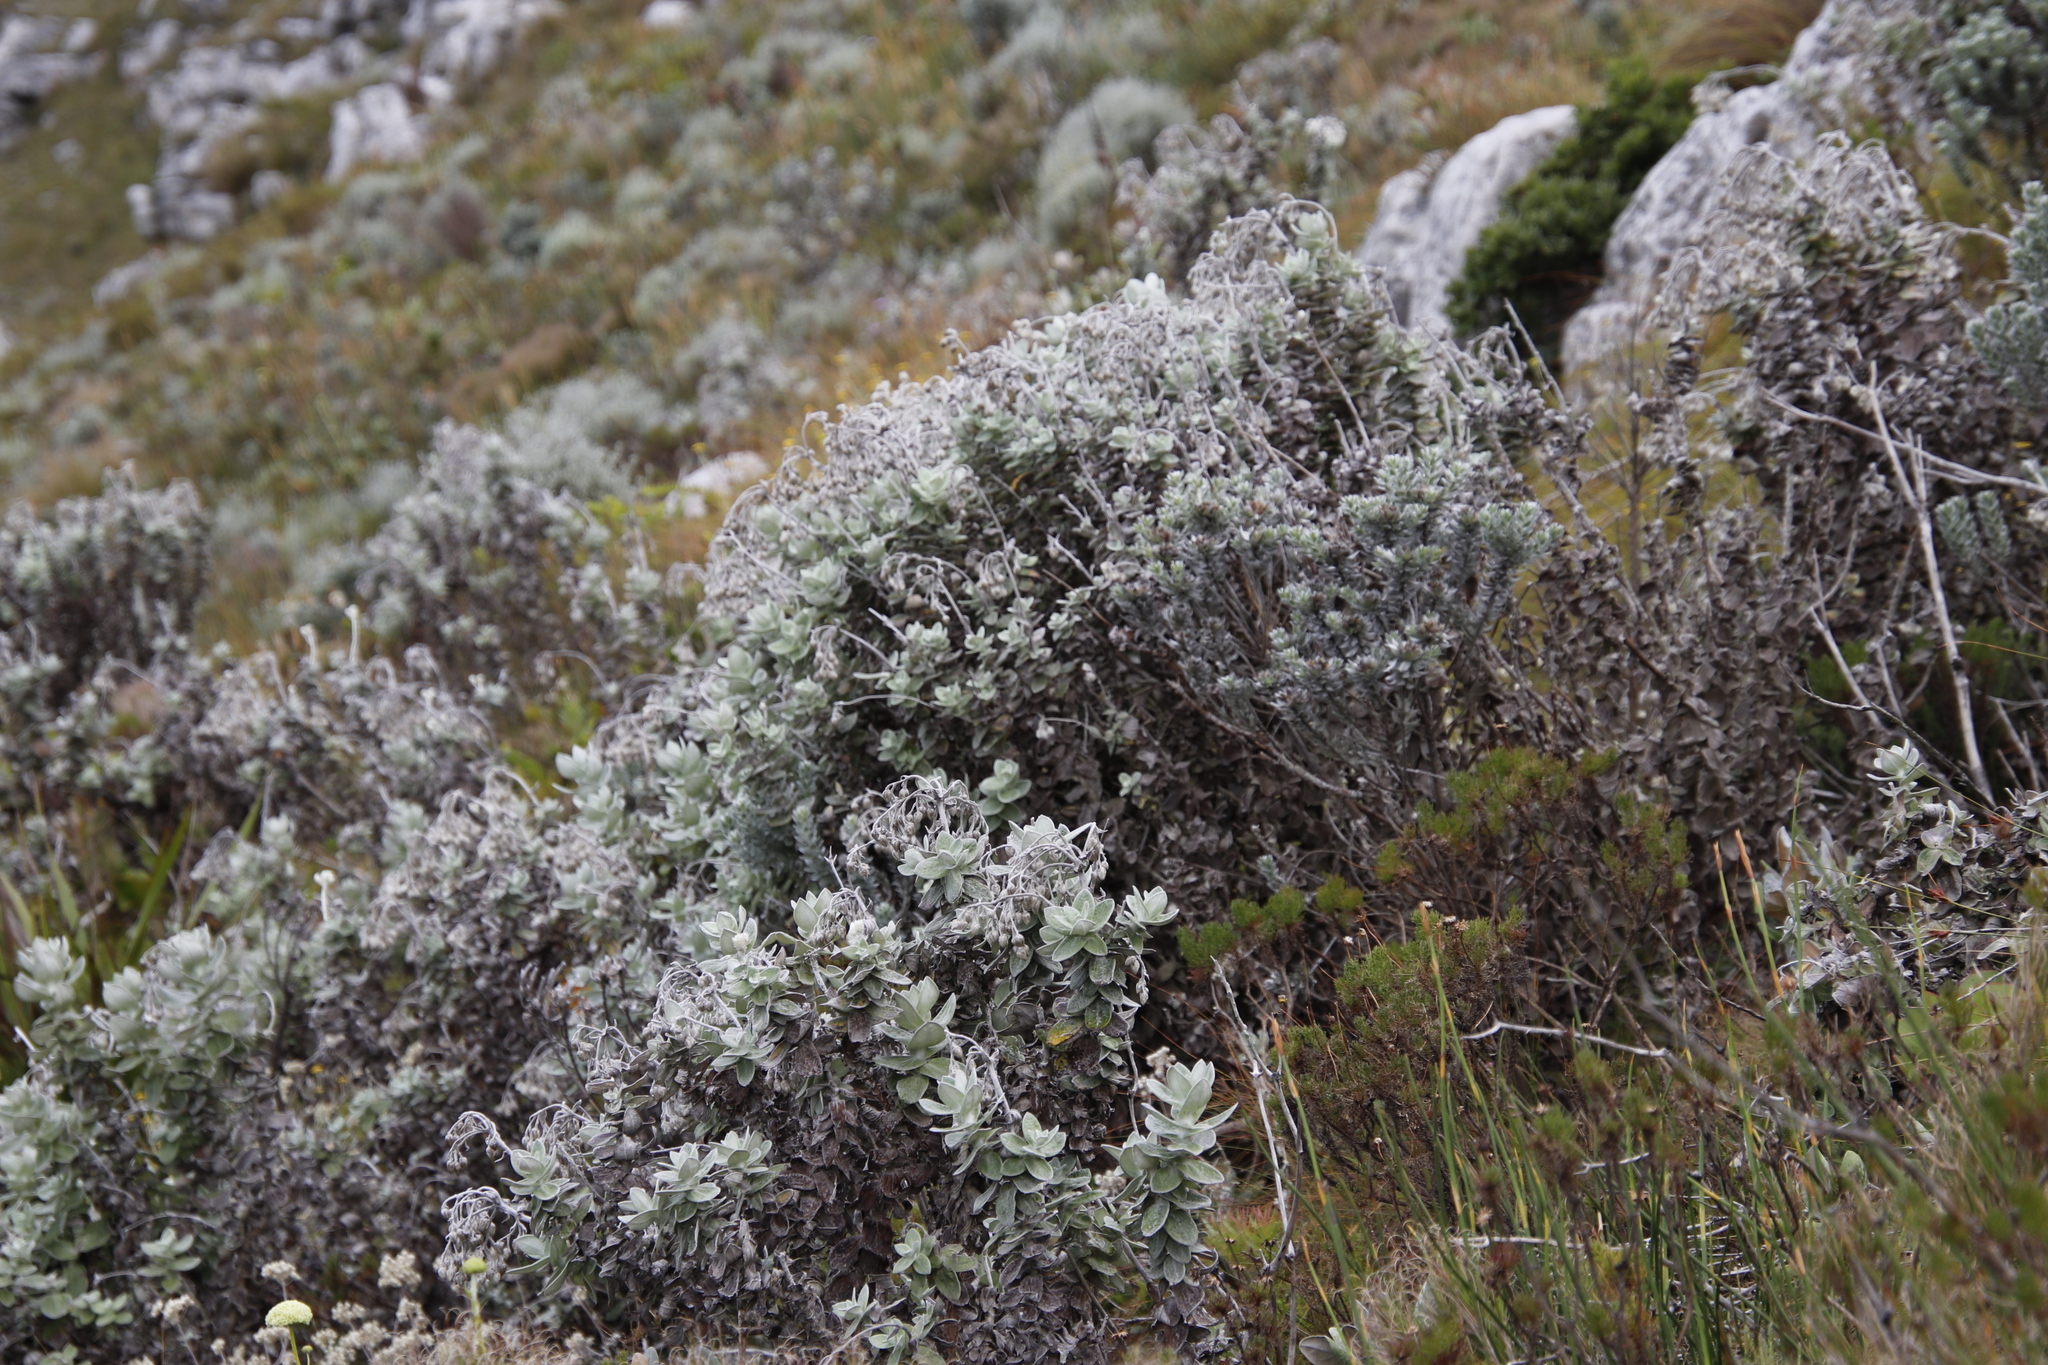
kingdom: Plantae
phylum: Tracheophyta
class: Magnoliopsida
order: Asterales
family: Asteraceae
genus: Helichrysum
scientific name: Helichrysum fruticans
